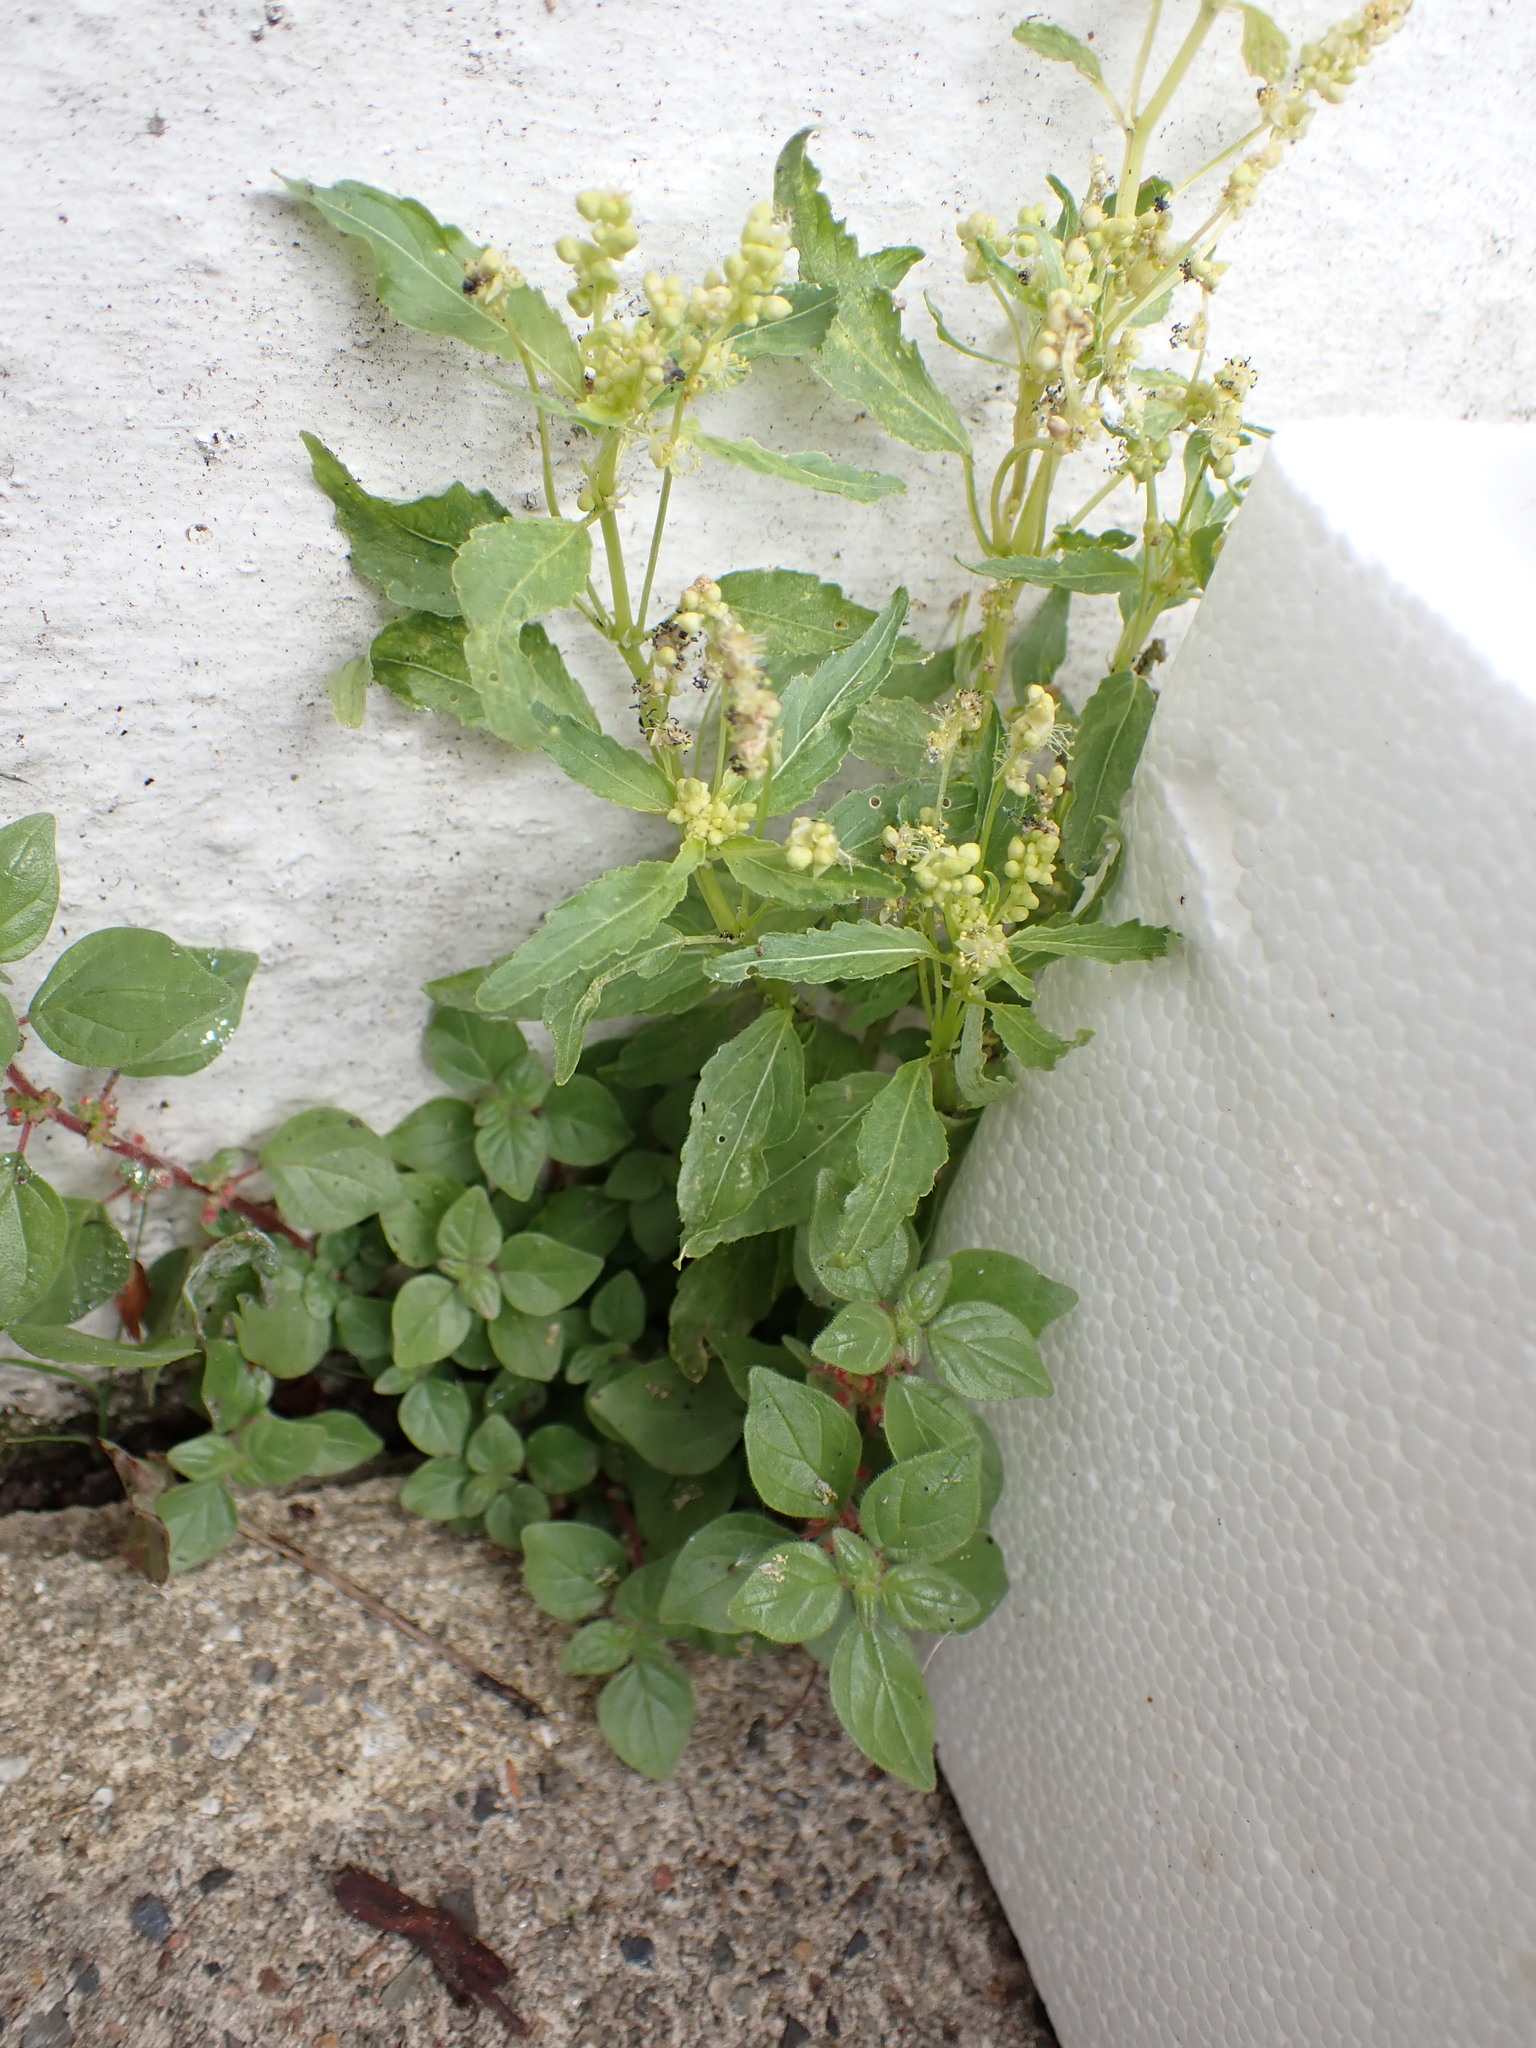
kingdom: Plantae
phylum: Tracheophyta
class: Magnoliopsida
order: Malpighiales
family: Euphorbiaceae
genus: Mercurialis
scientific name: Mercurialis annua
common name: Annual mercury
